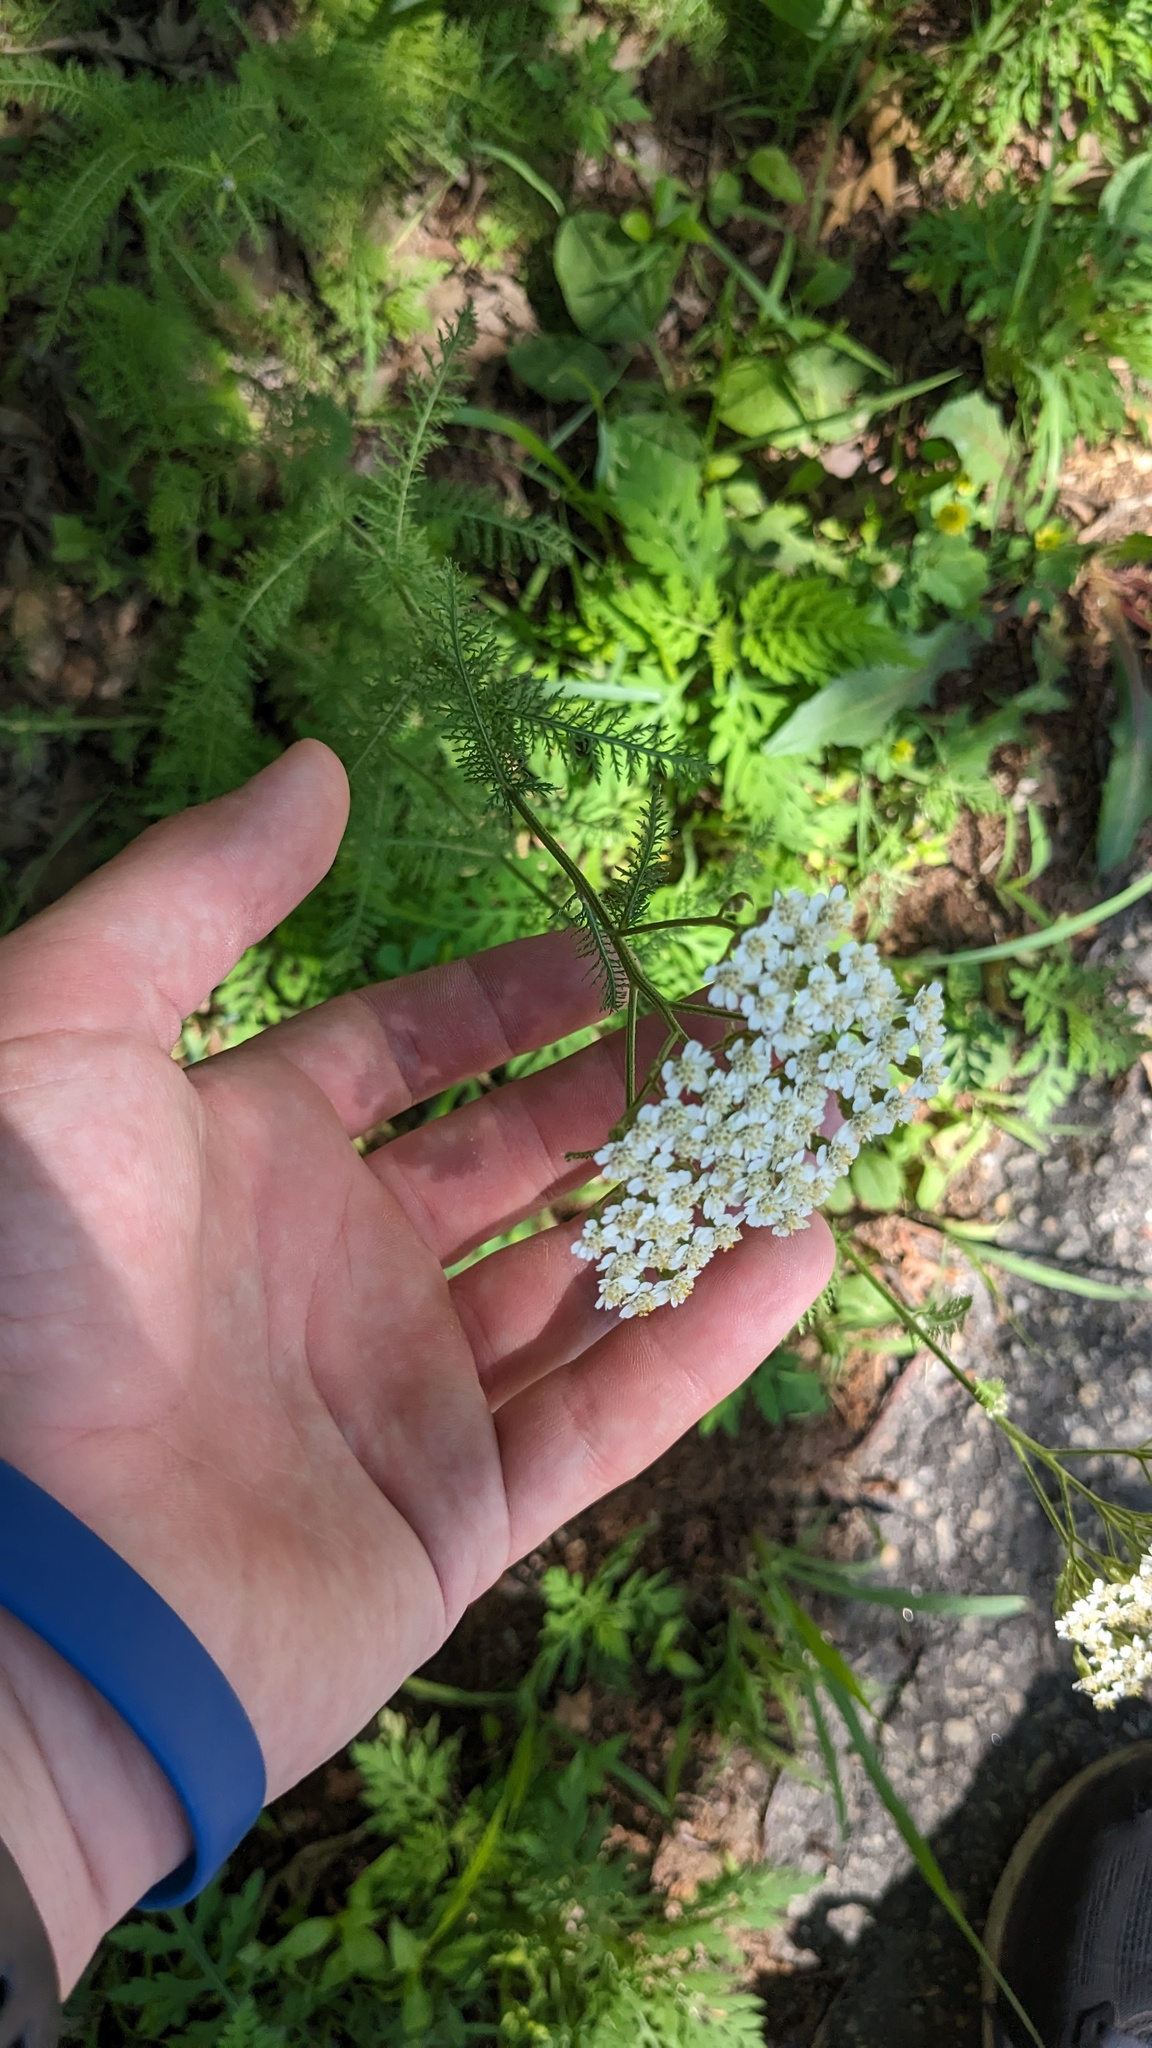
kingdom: Plantae
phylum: Tracheophyta
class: Magnoliopsida
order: Asterales
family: Asteraceae
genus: Achillea
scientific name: Achillea millefolium
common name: Yarrow
